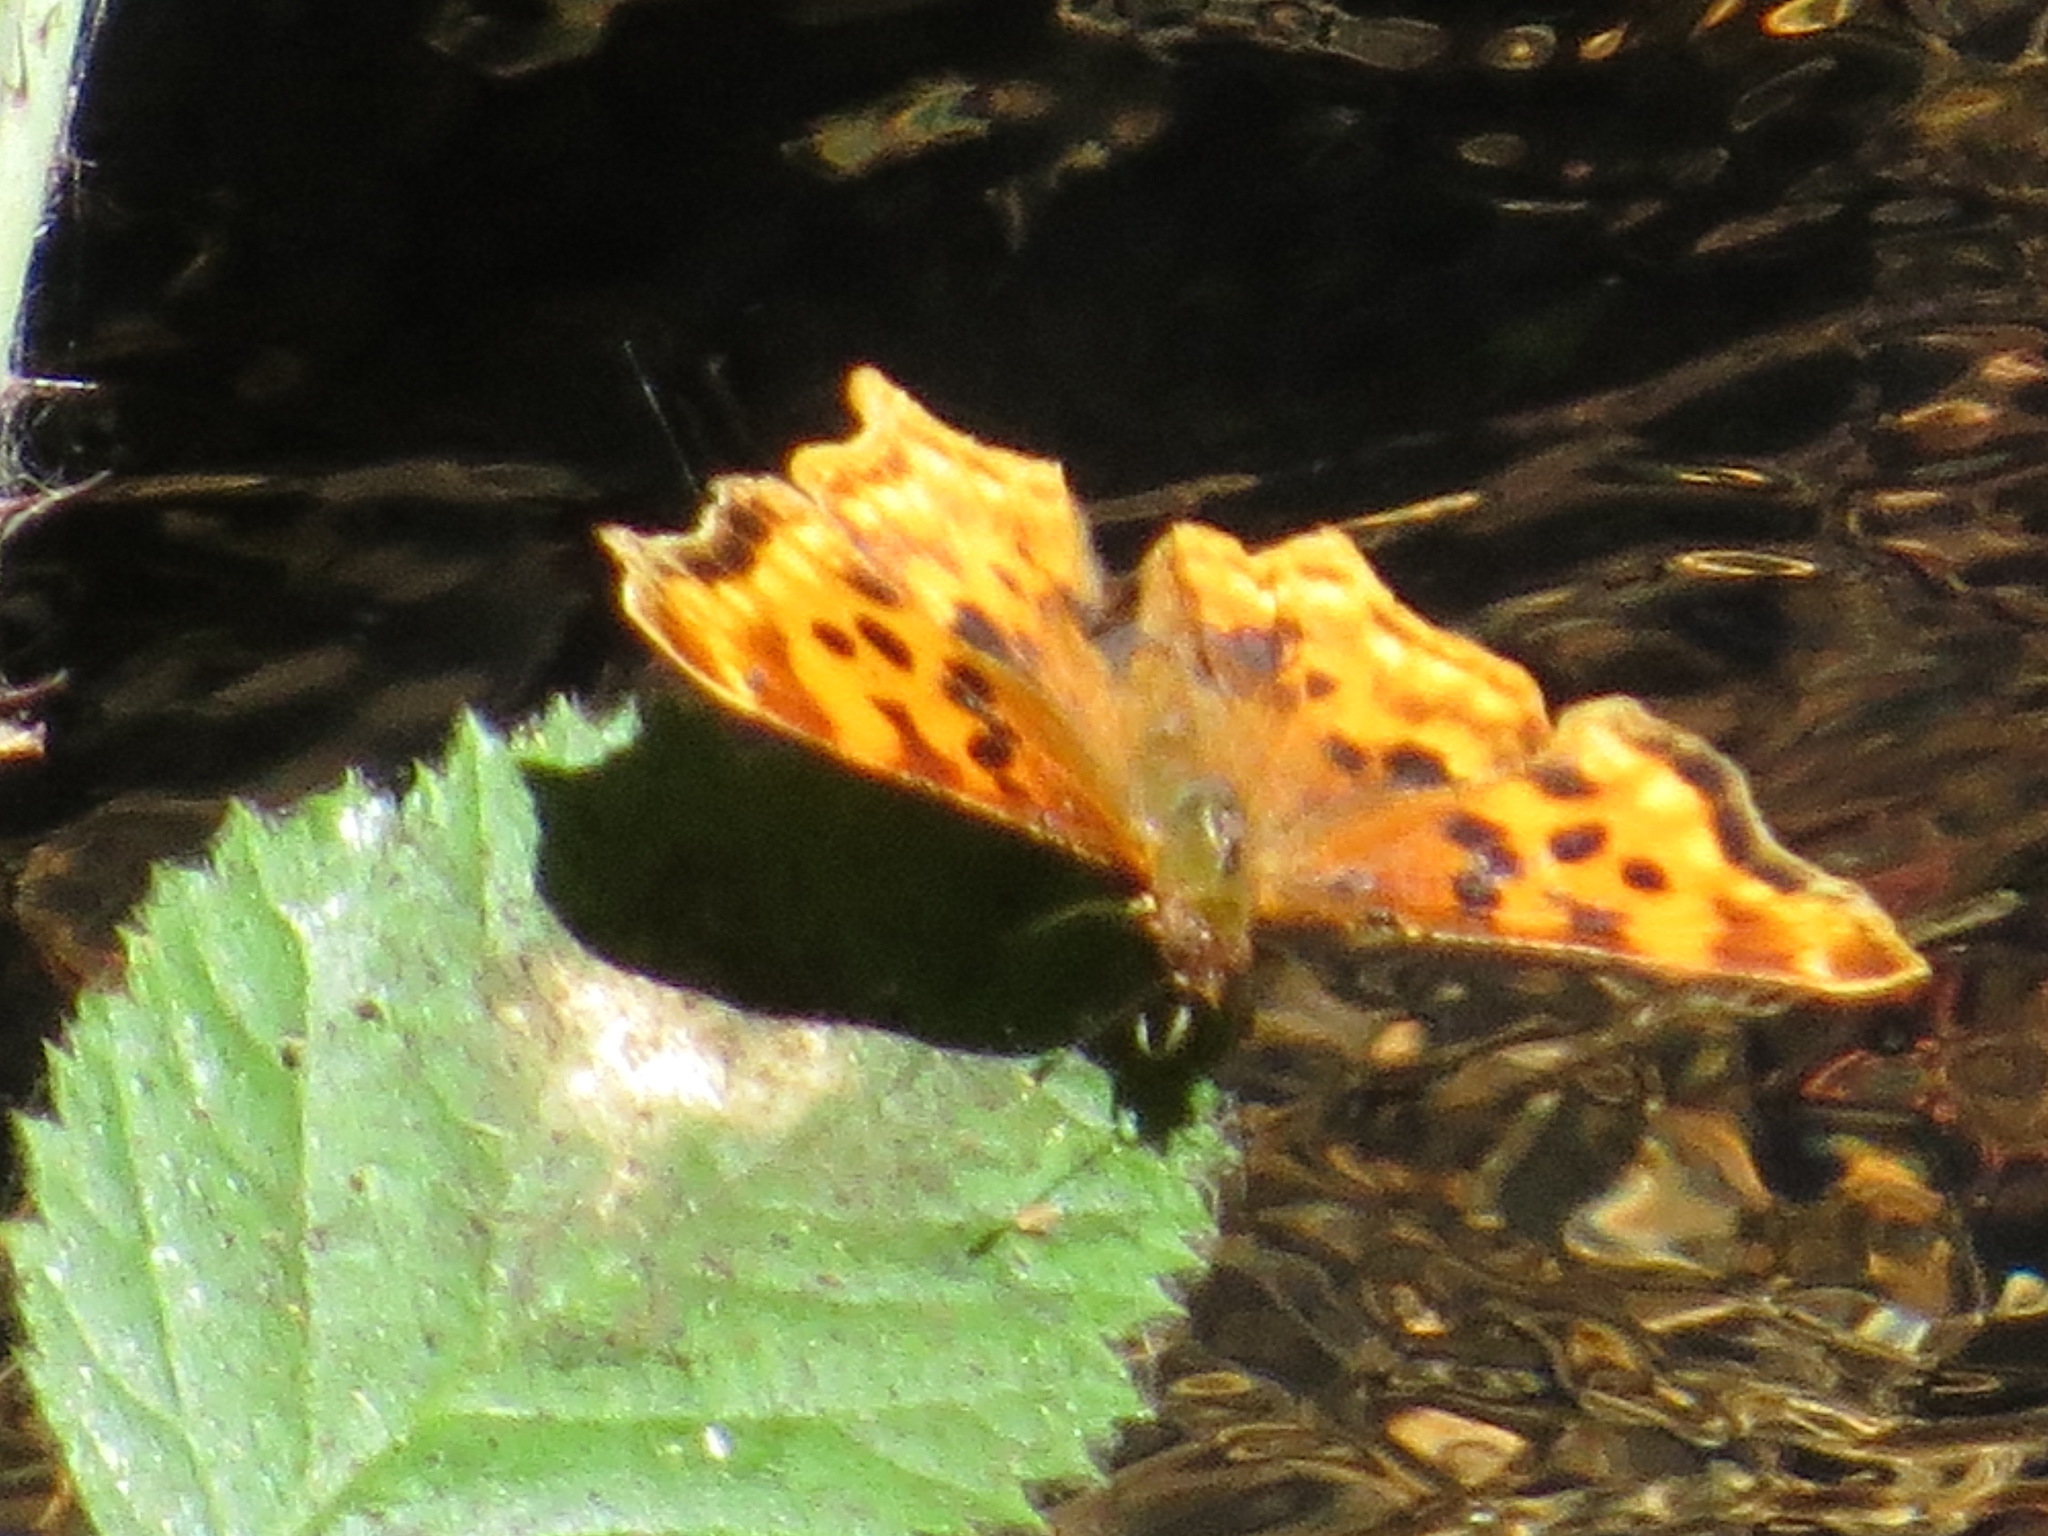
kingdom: Animalia
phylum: Arthropoda
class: Insecta
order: Lepidoptera
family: Nymphalidae
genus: Polygonia
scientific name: Polygonia satyrus
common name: Satyr angle wing
